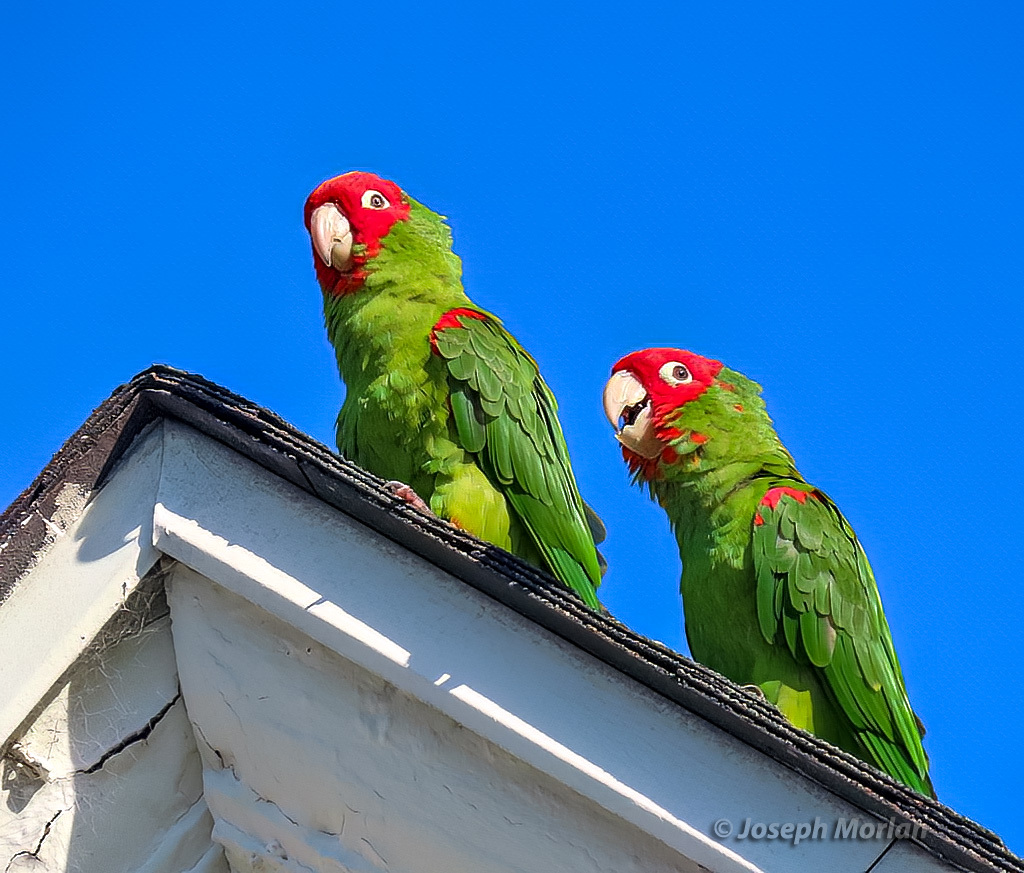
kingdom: Animalia
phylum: Chordata
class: Aves
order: Psittaciformes
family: Psittacidae
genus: Aratinga
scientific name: Aratinga erythrogenys
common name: Red-masked parakeet
